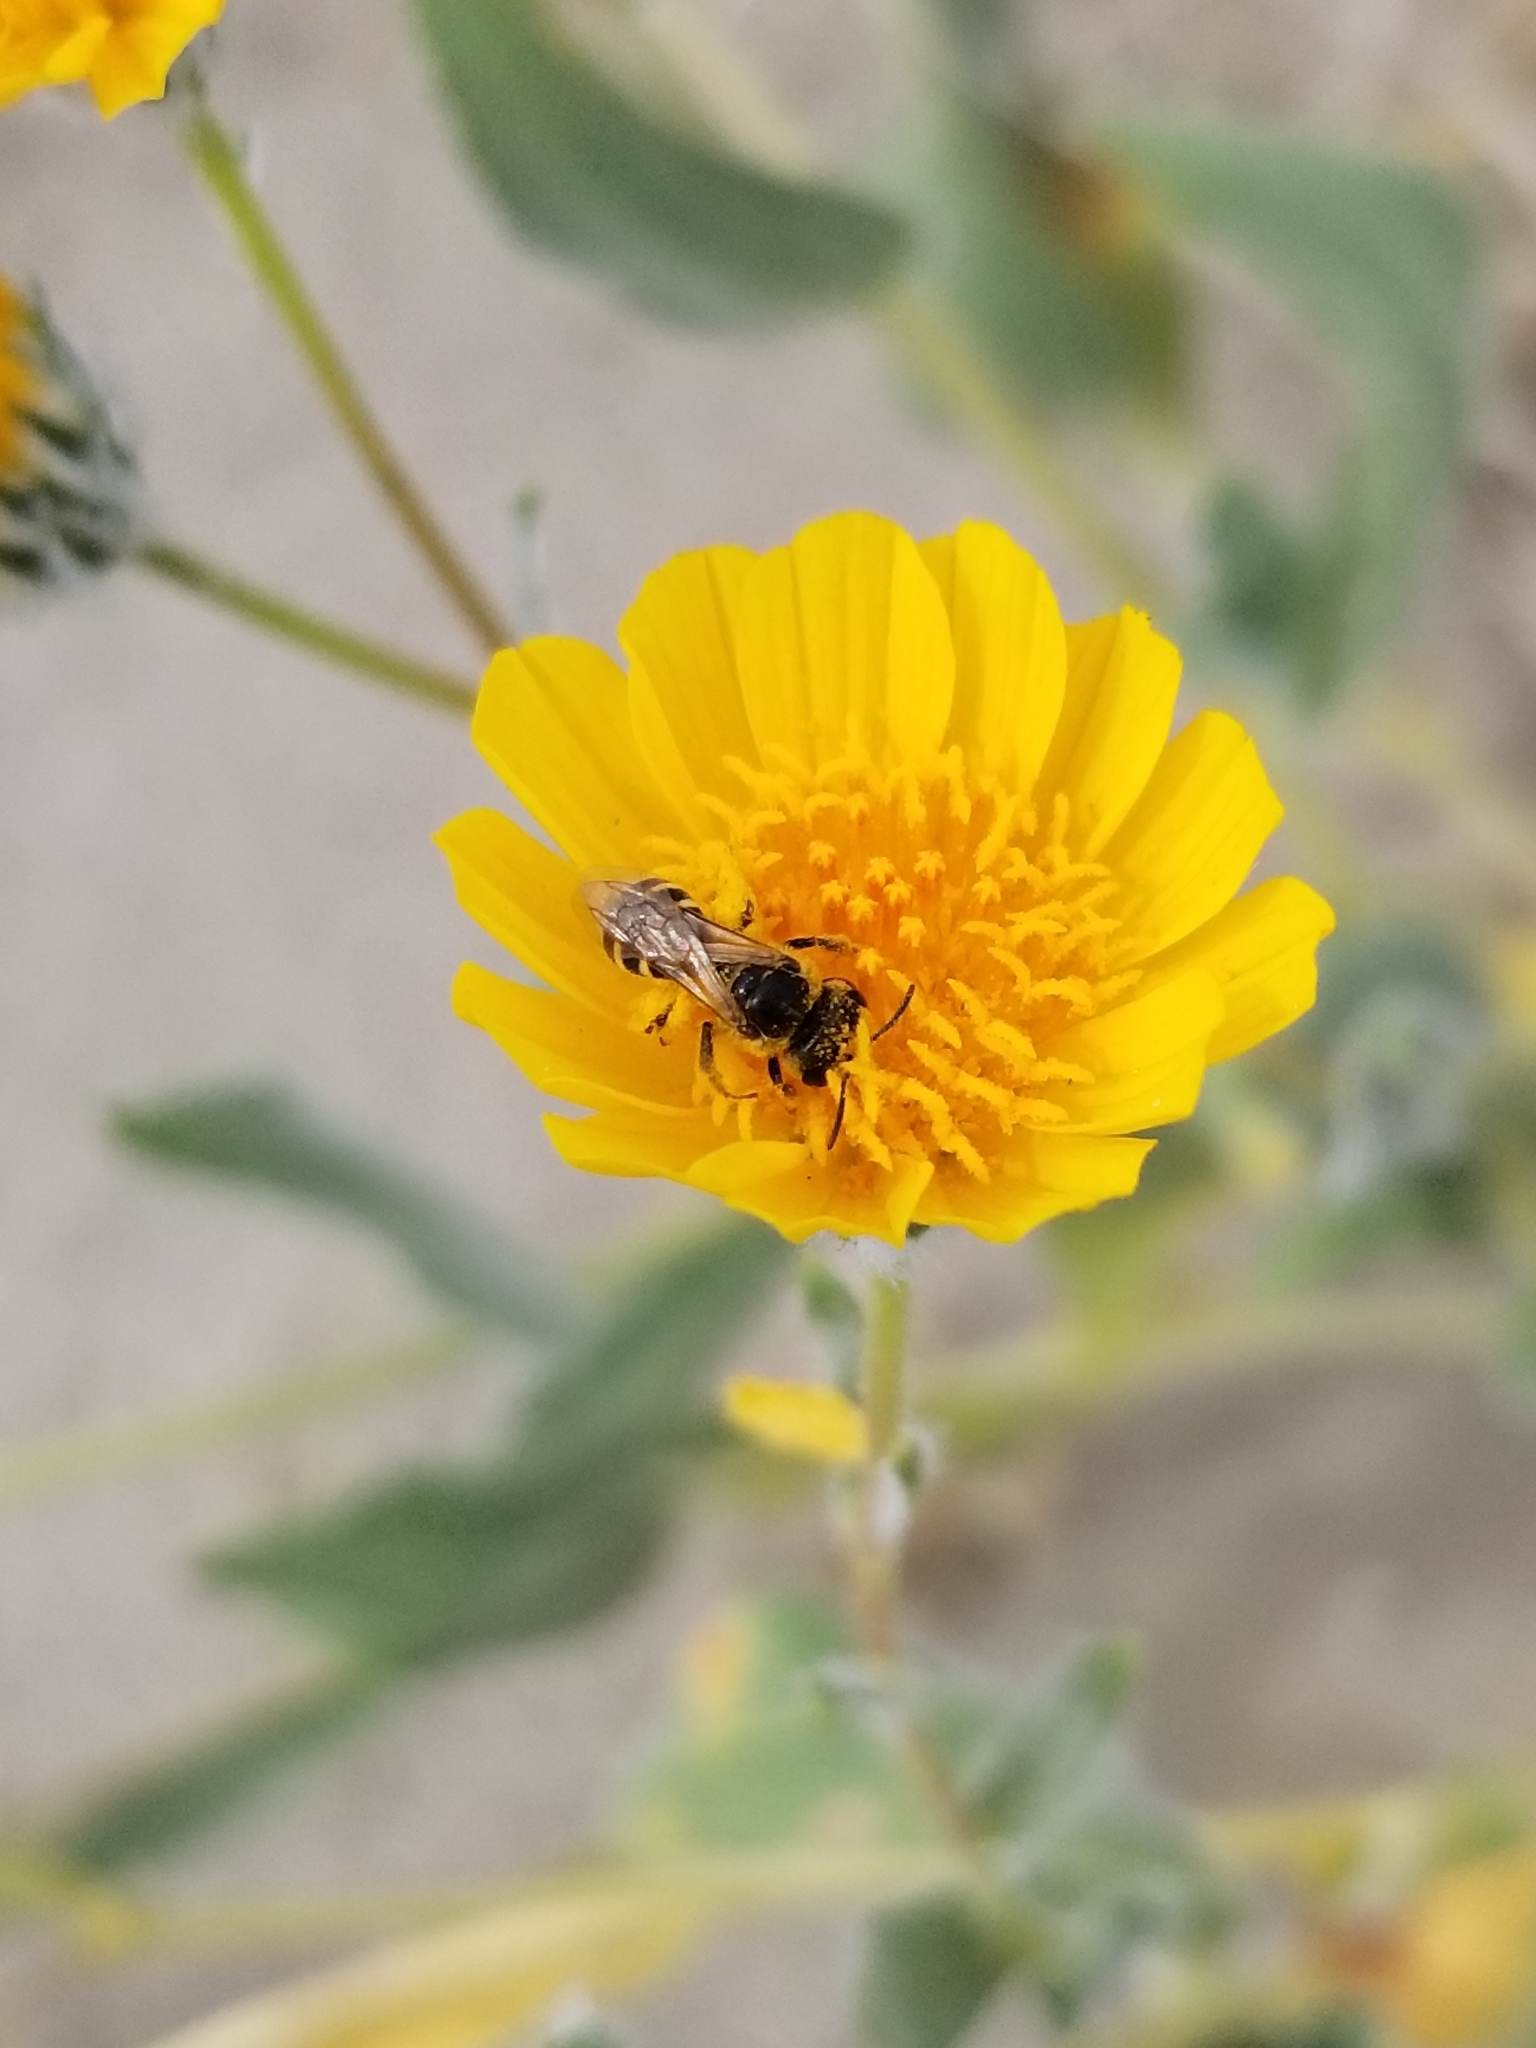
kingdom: Animalia
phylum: Arthropoda
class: Insecta
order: Hymenoptera
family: Halictidae
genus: Halictus
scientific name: Halictus ligatus
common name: Ligated furrow bee
